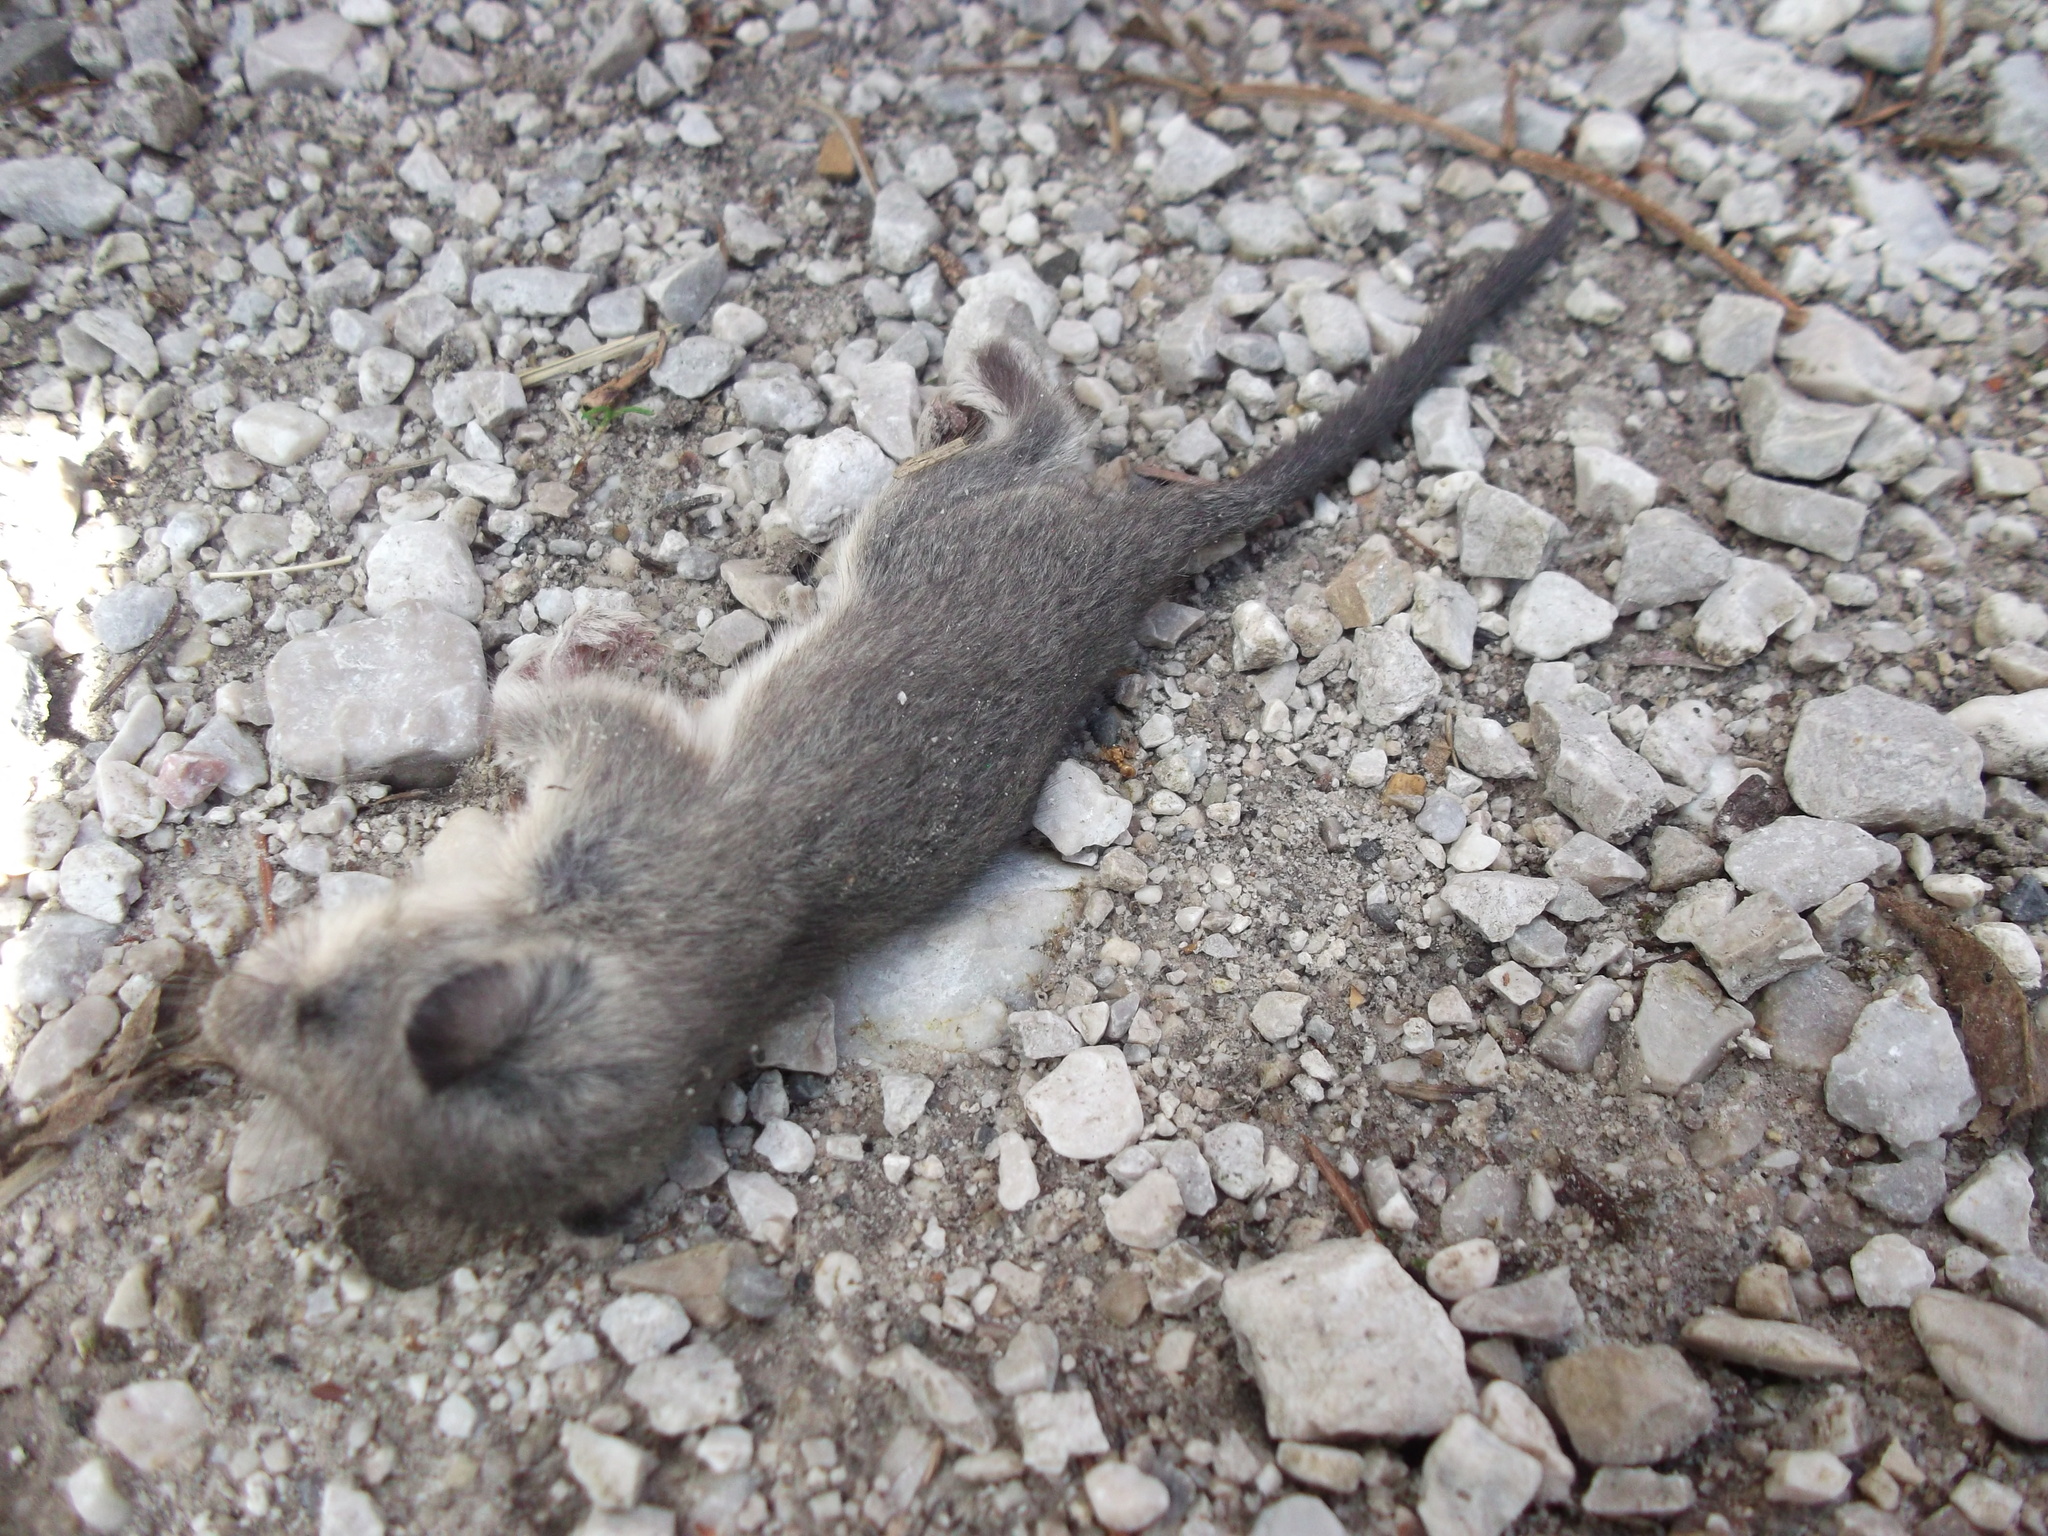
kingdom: Animalia
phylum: Chordata
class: Mammalia
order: Rodentia
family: Gliridae
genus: Glis
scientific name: Glis glis
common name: Fat dormouse
